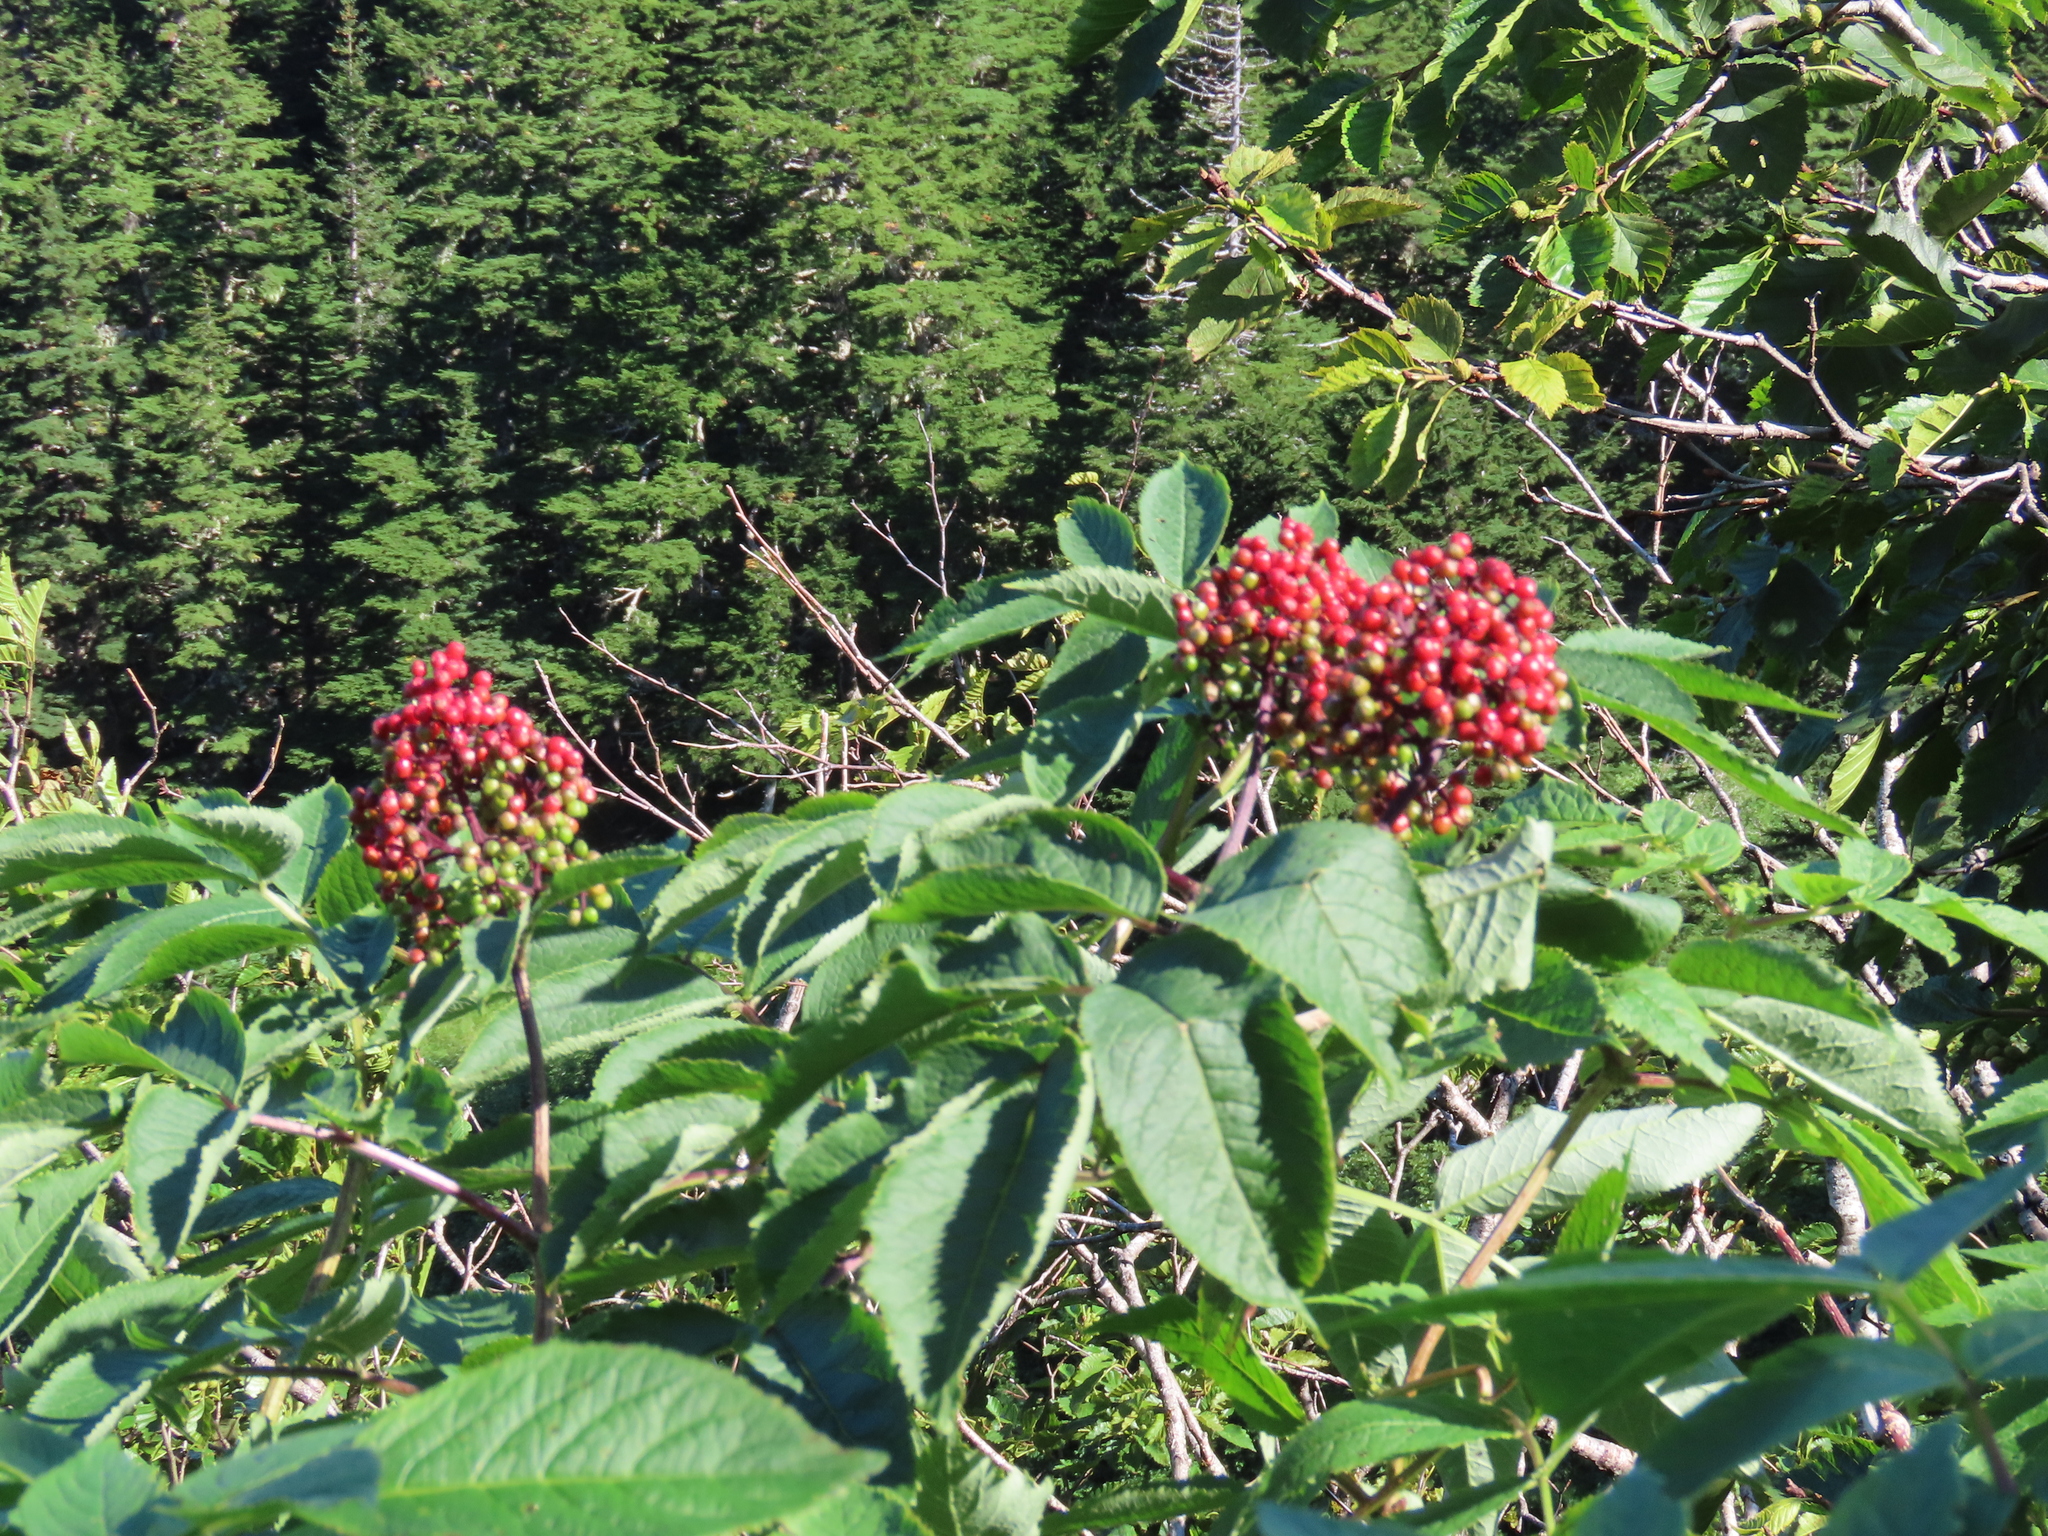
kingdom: Plantae
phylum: Tracheophyta
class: Magnoliopsida
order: Dipsacales
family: Viburnaceae
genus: Sambucus
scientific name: Sambucus racemosa
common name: Red-berried elder
